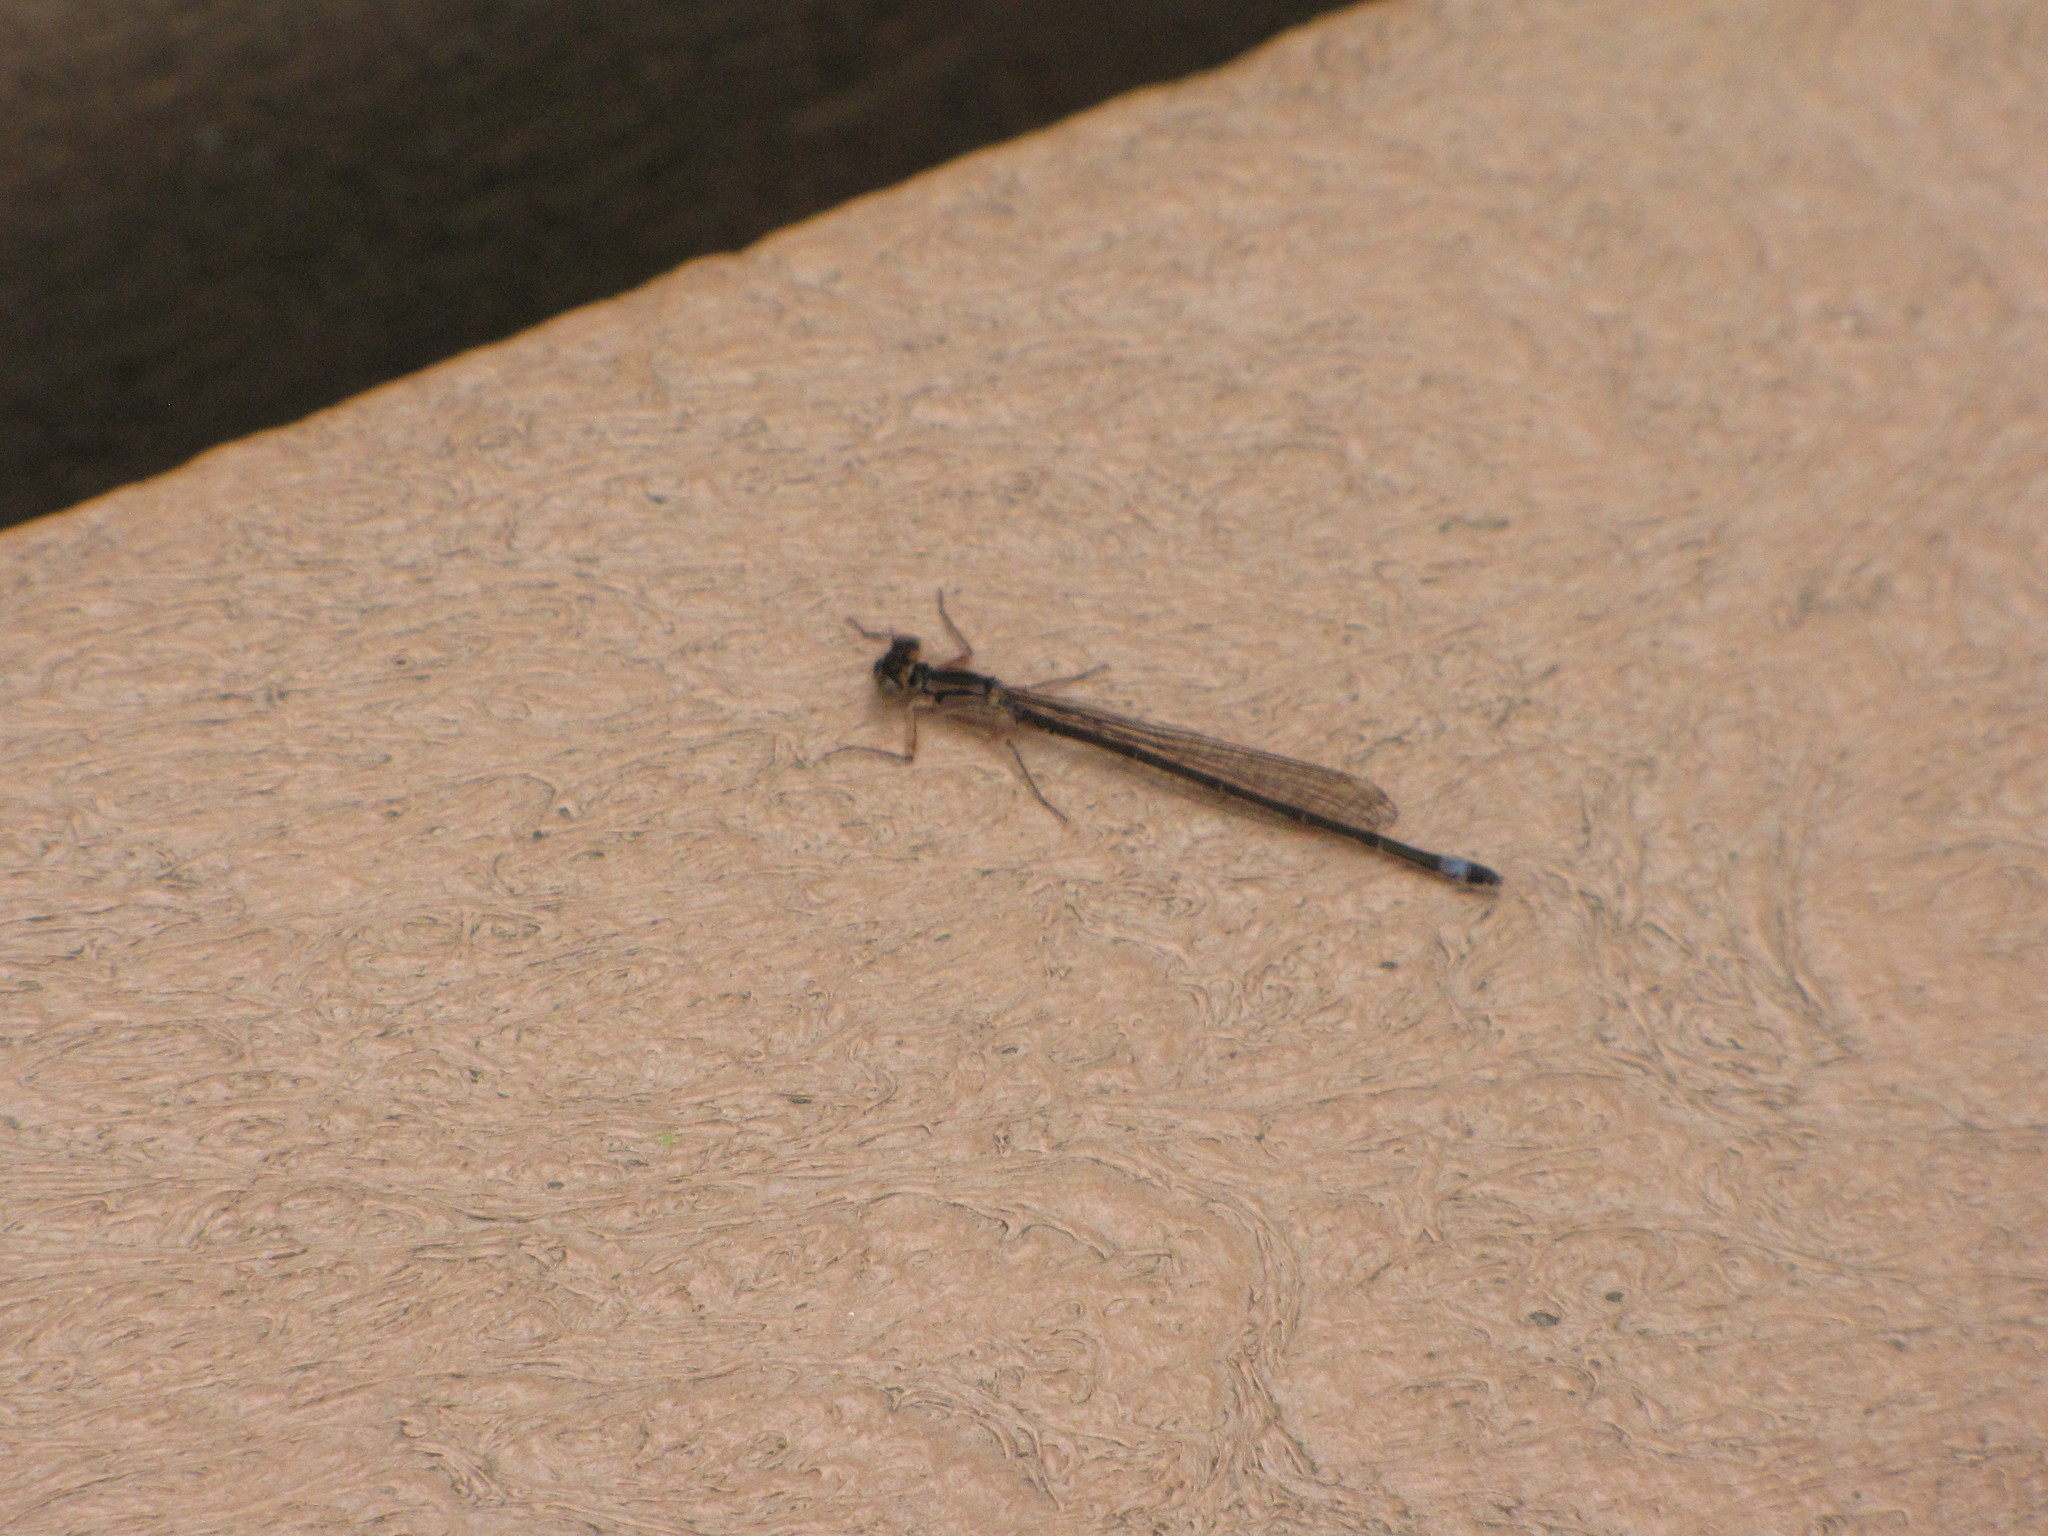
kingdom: Animalia
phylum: Arthropoda
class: Insecta
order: Odonata
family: Coenagrionidae
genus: Ischnura
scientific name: Ischnura cervula
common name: Pacific forktail
